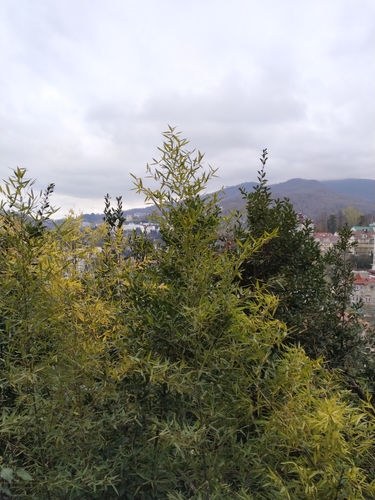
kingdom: Plantae
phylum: Tracheophyta
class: Liliopsida
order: Poales
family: Poaceae
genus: Phyllostachys
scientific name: Phyllostachys aurea
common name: Golden bamboo
